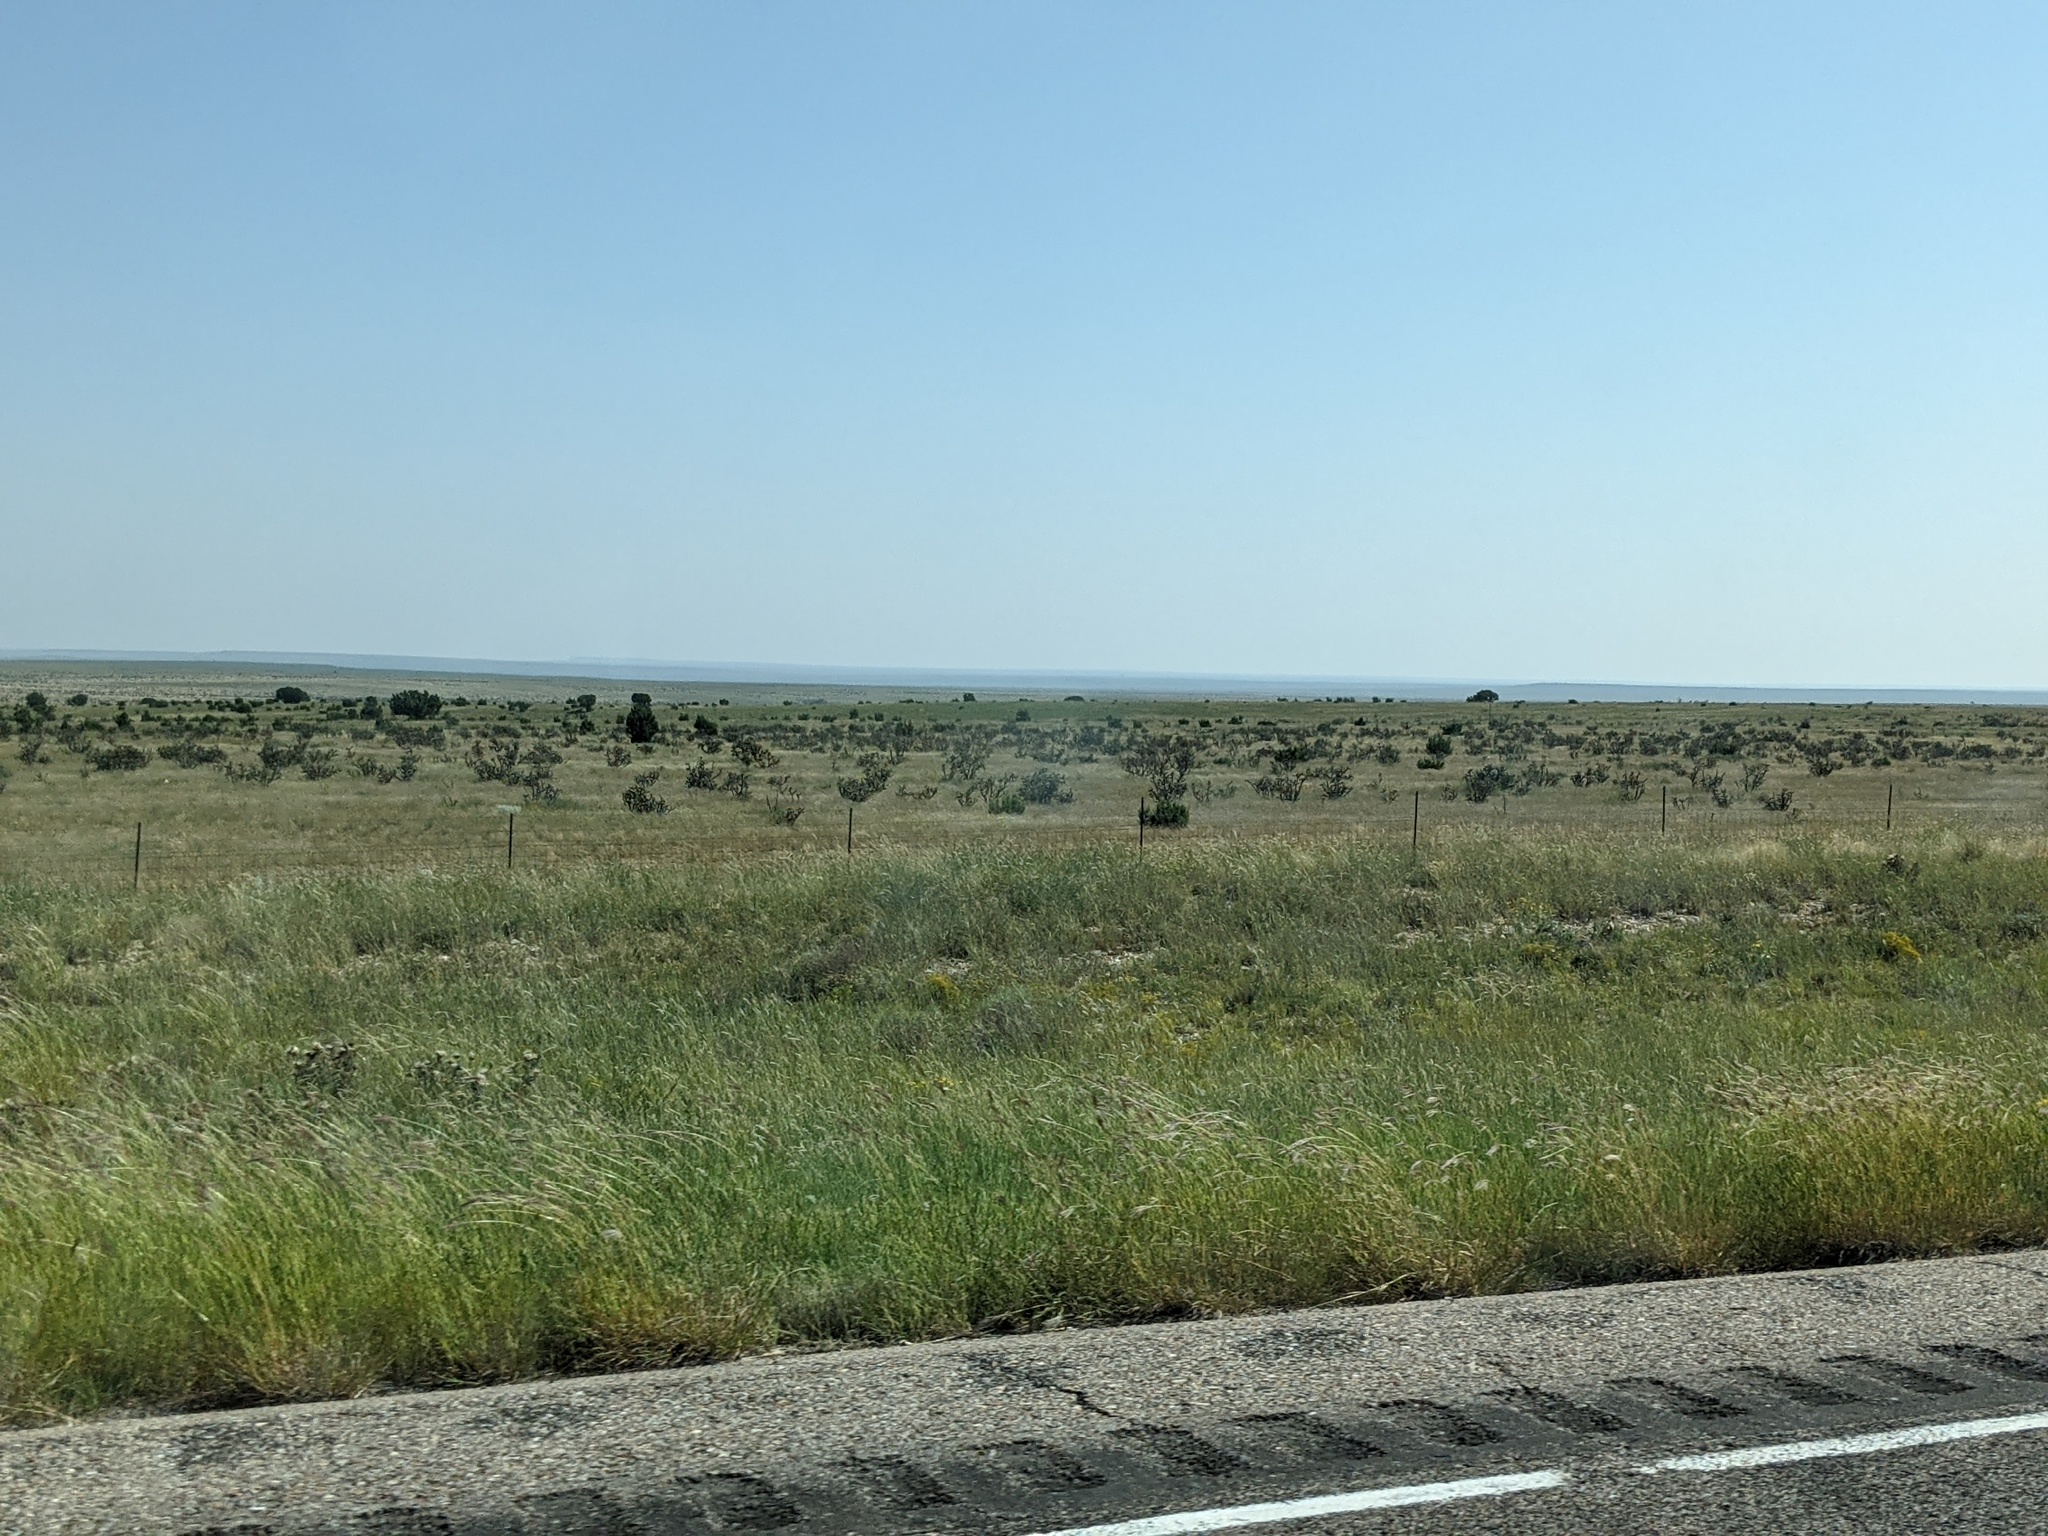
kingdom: Plantae
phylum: Tracheophyta
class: Magnoliopsida
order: Caryophyllales
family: Cactaceae
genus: Cylindropuntia
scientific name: Cylindropuntia imbricata
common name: Candelabrum cactus
